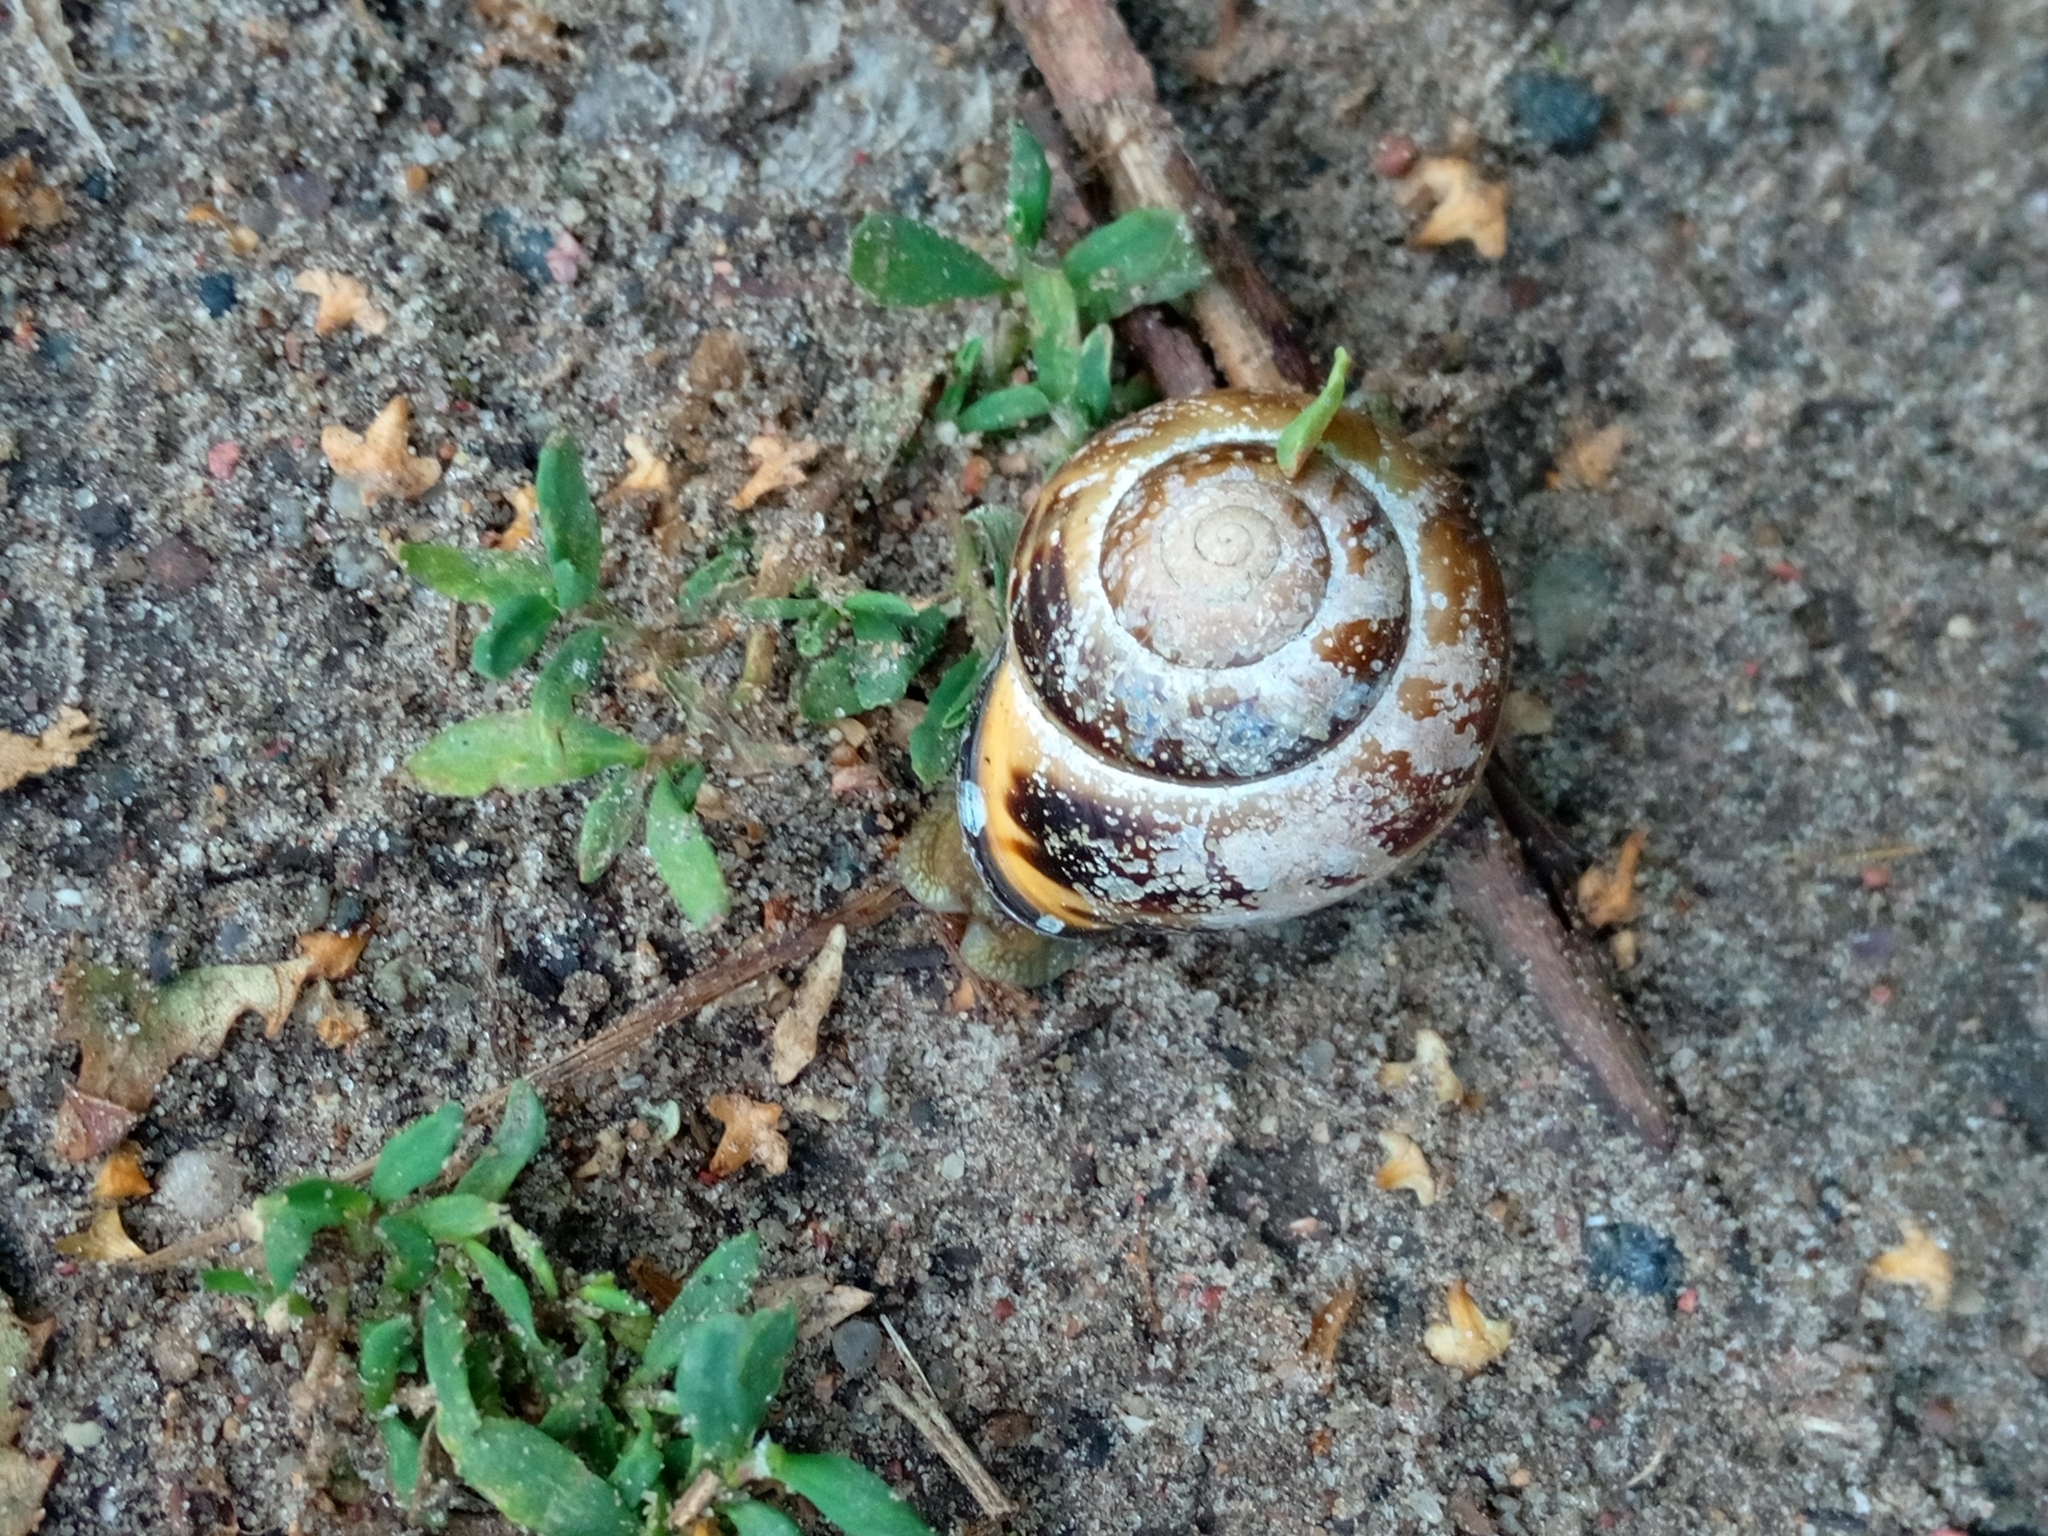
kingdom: Animalia
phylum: Mollusca
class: Gastropoda
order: Stylommatophora
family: Helicidae
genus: Cepaea
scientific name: Cepaea nemoralis
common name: Grovesnail
